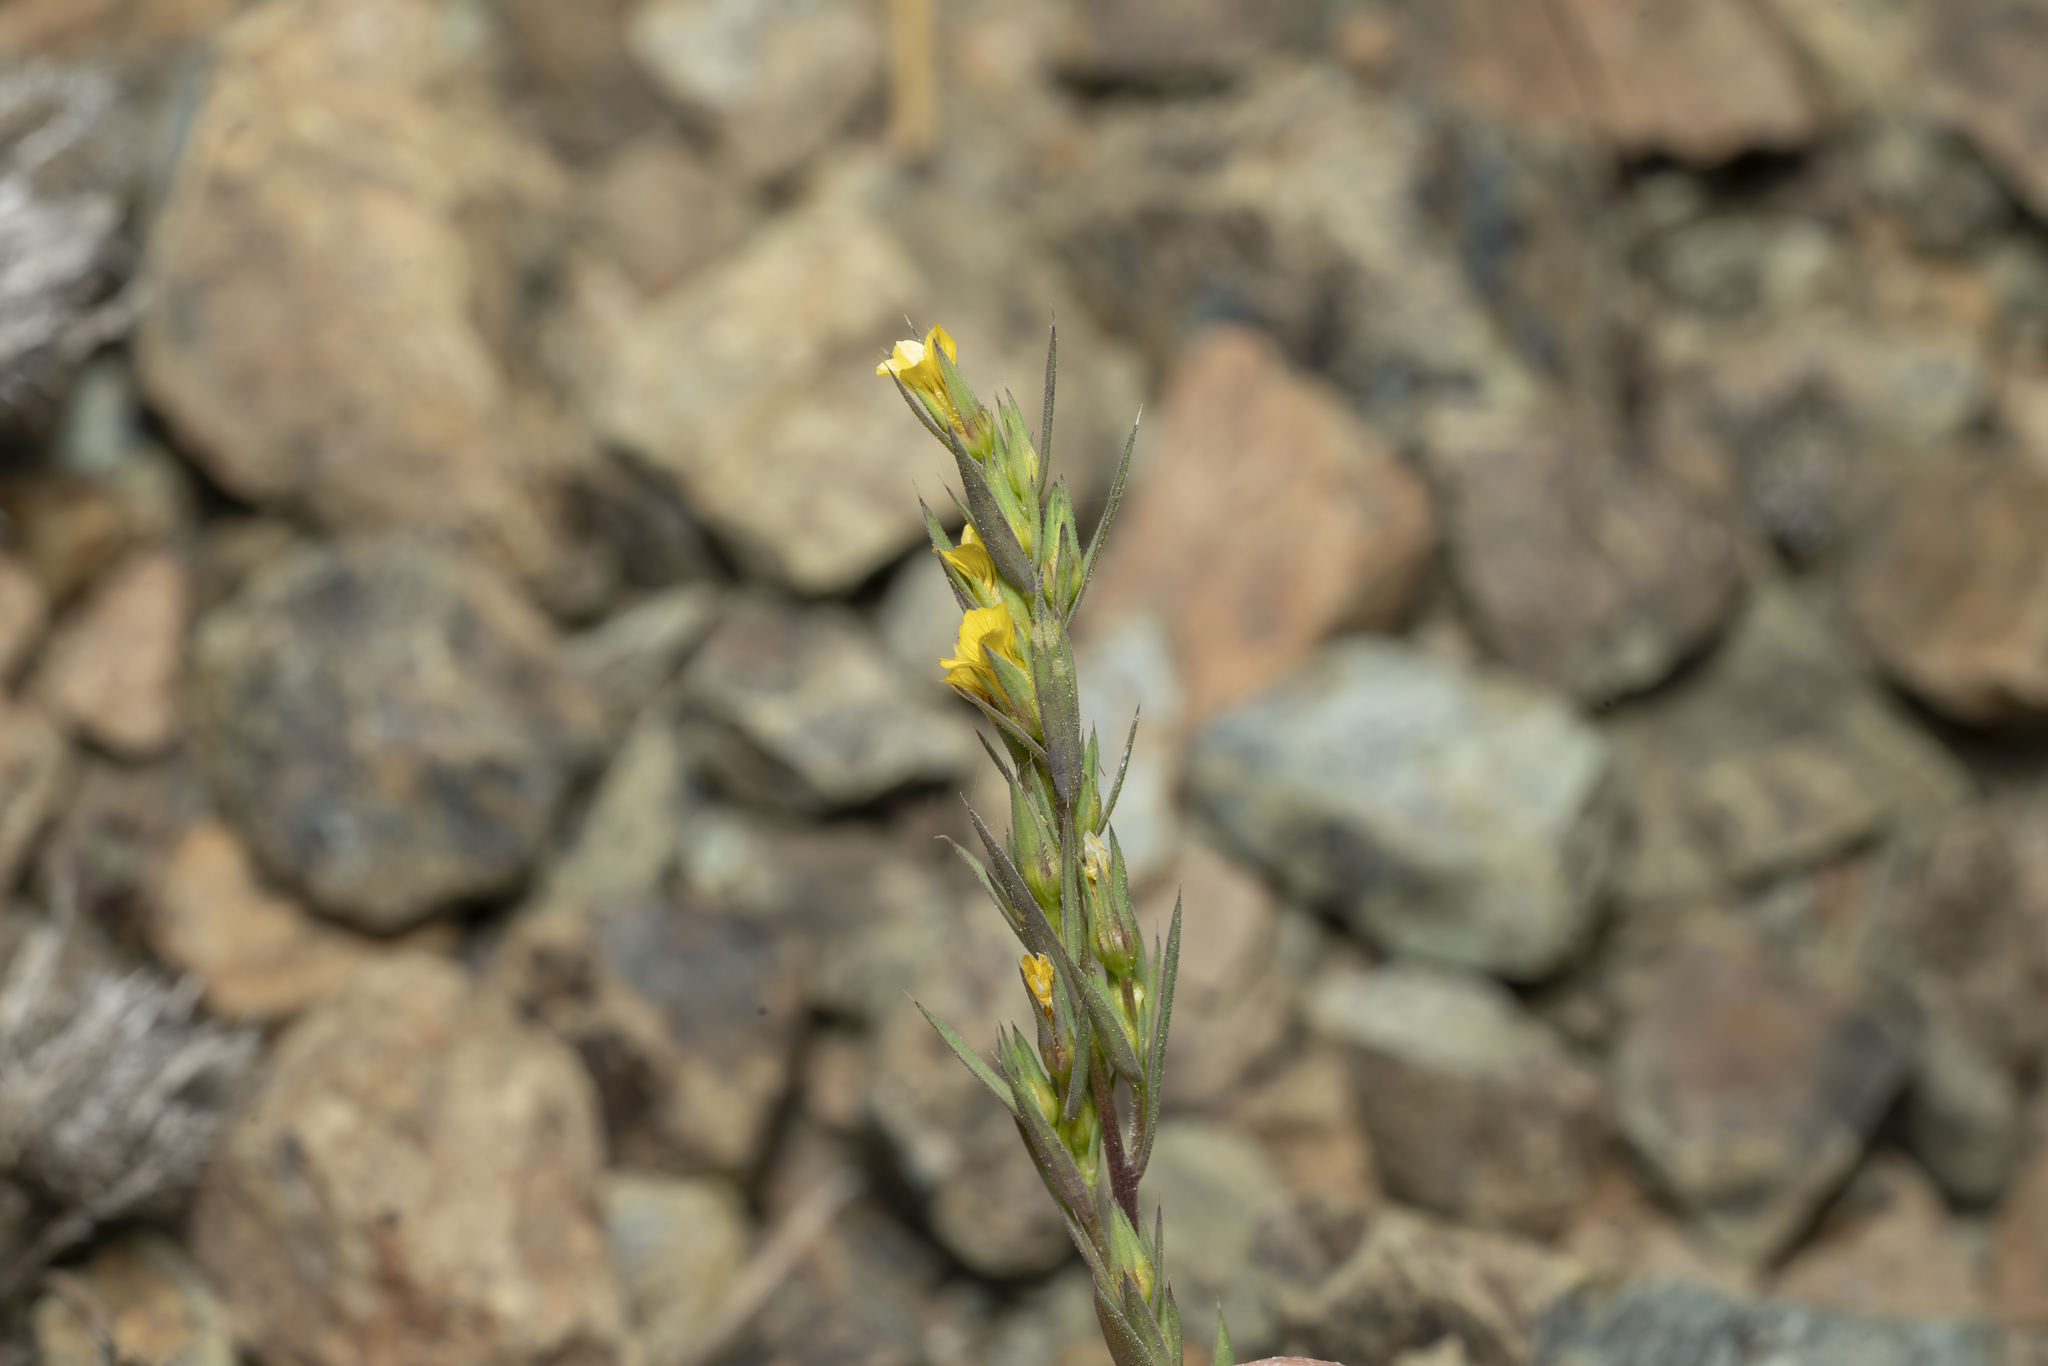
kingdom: Plantae
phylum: Tracheophyta
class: Magnoliopsida
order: Malpighiales
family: Linaceae
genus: Linum
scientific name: Linum strictum
